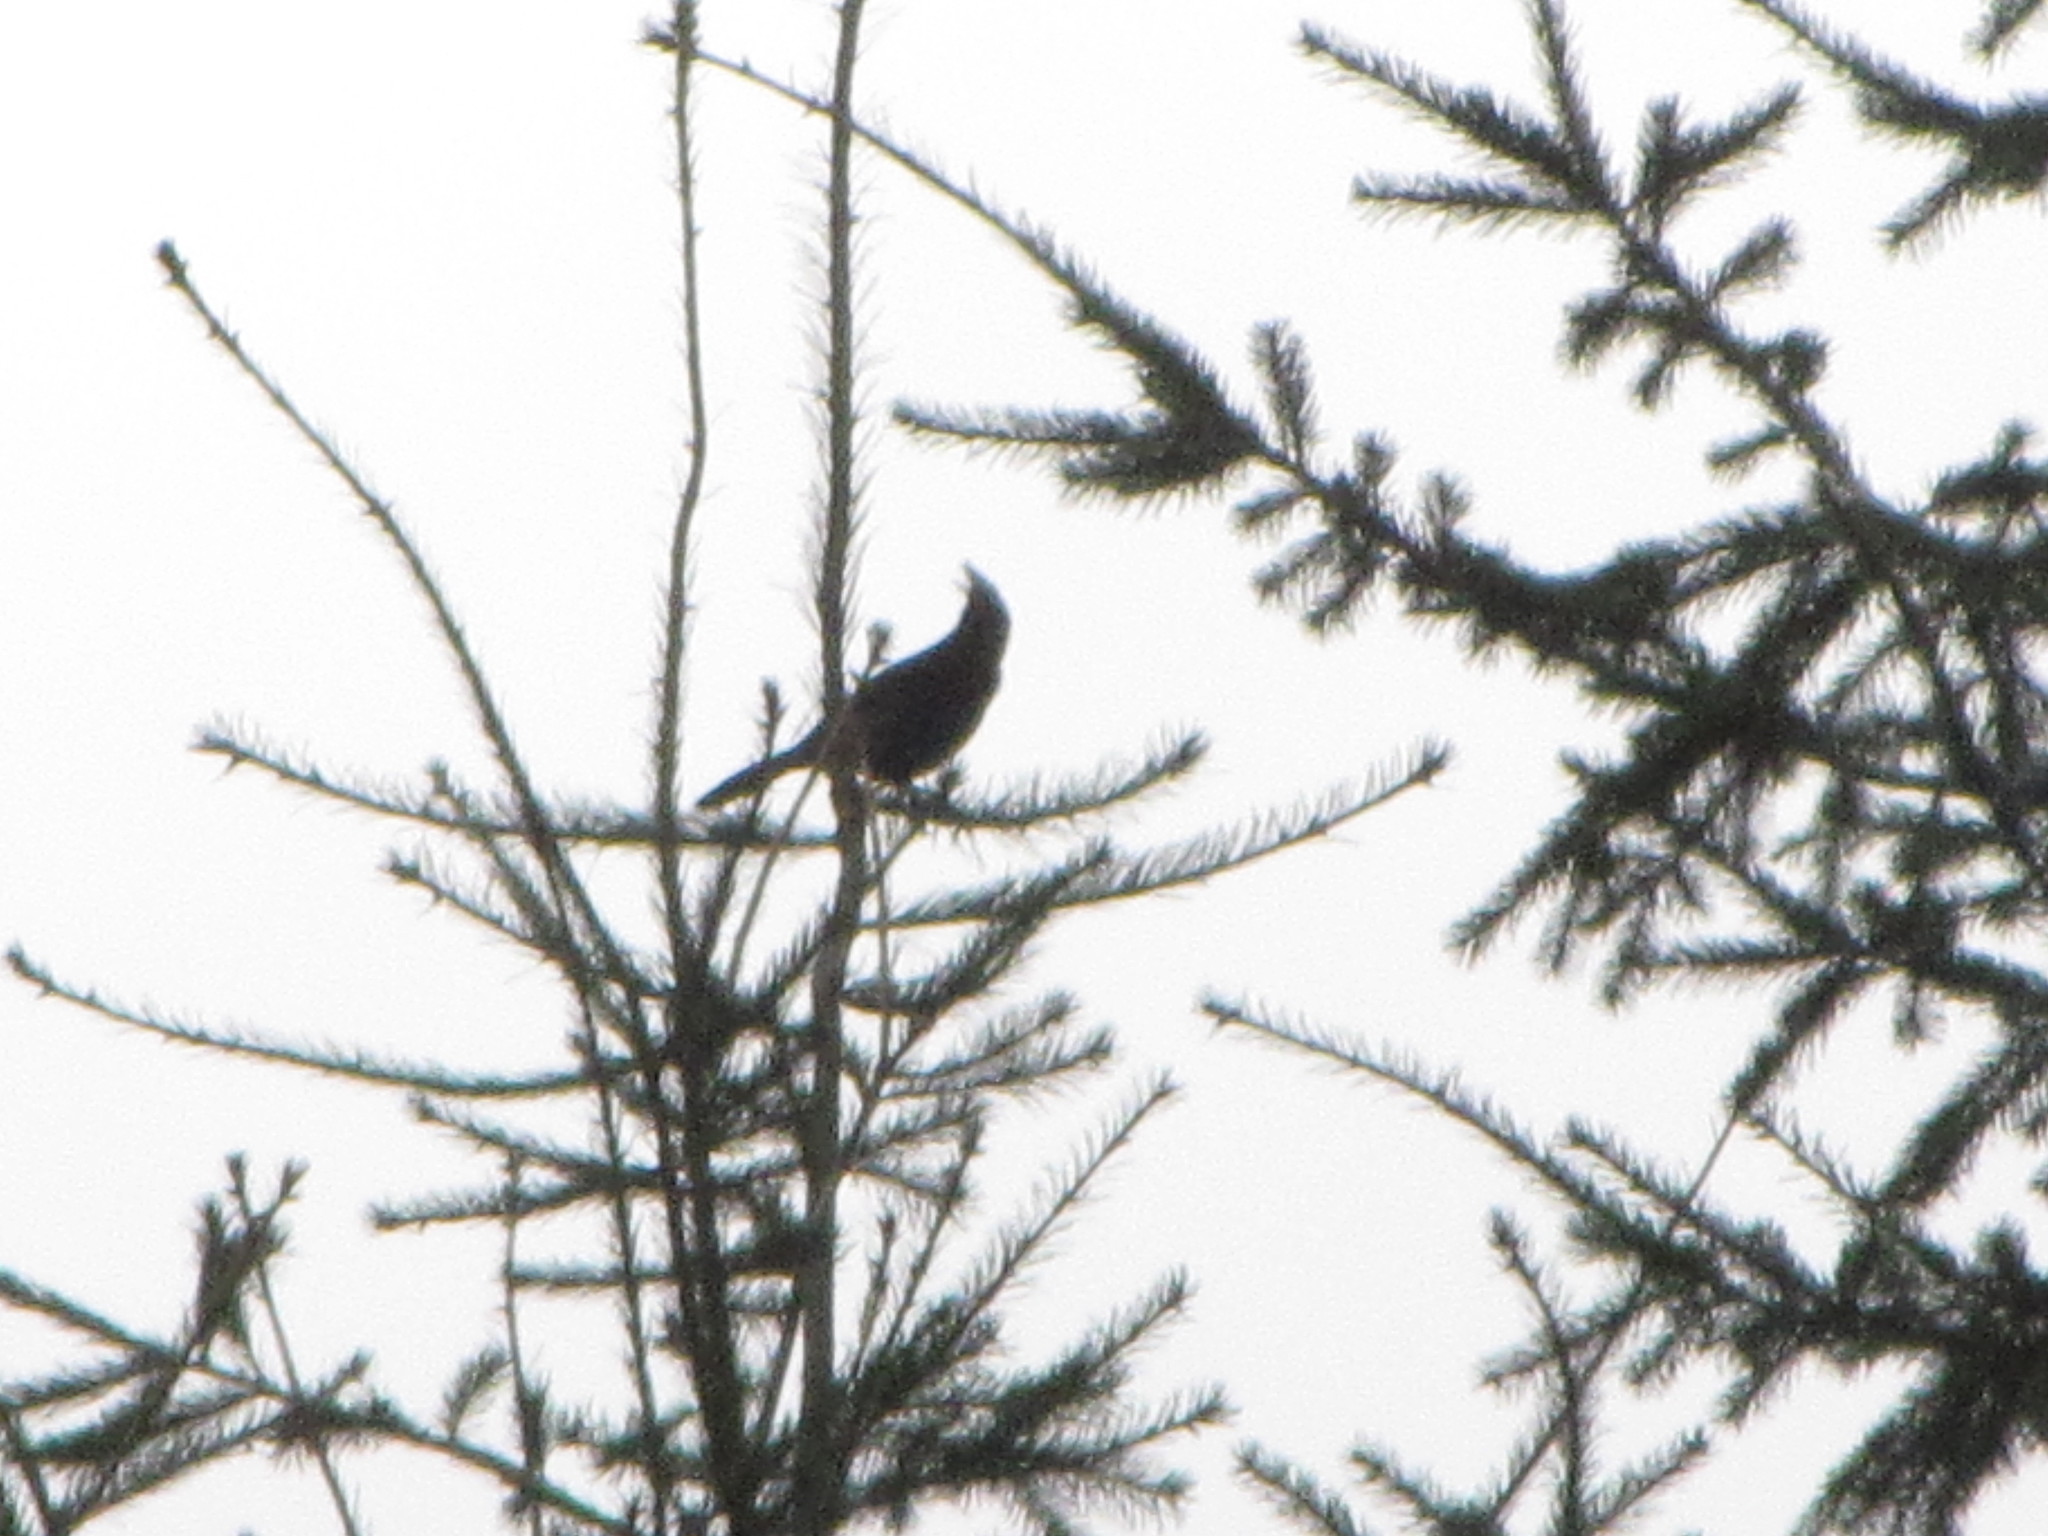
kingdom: Animalia
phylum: Chordata
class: Aves
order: Passeriformes
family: Corvidae
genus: Cyanocitta
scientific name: Cyanocitta stelleri
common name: Steller's jay
